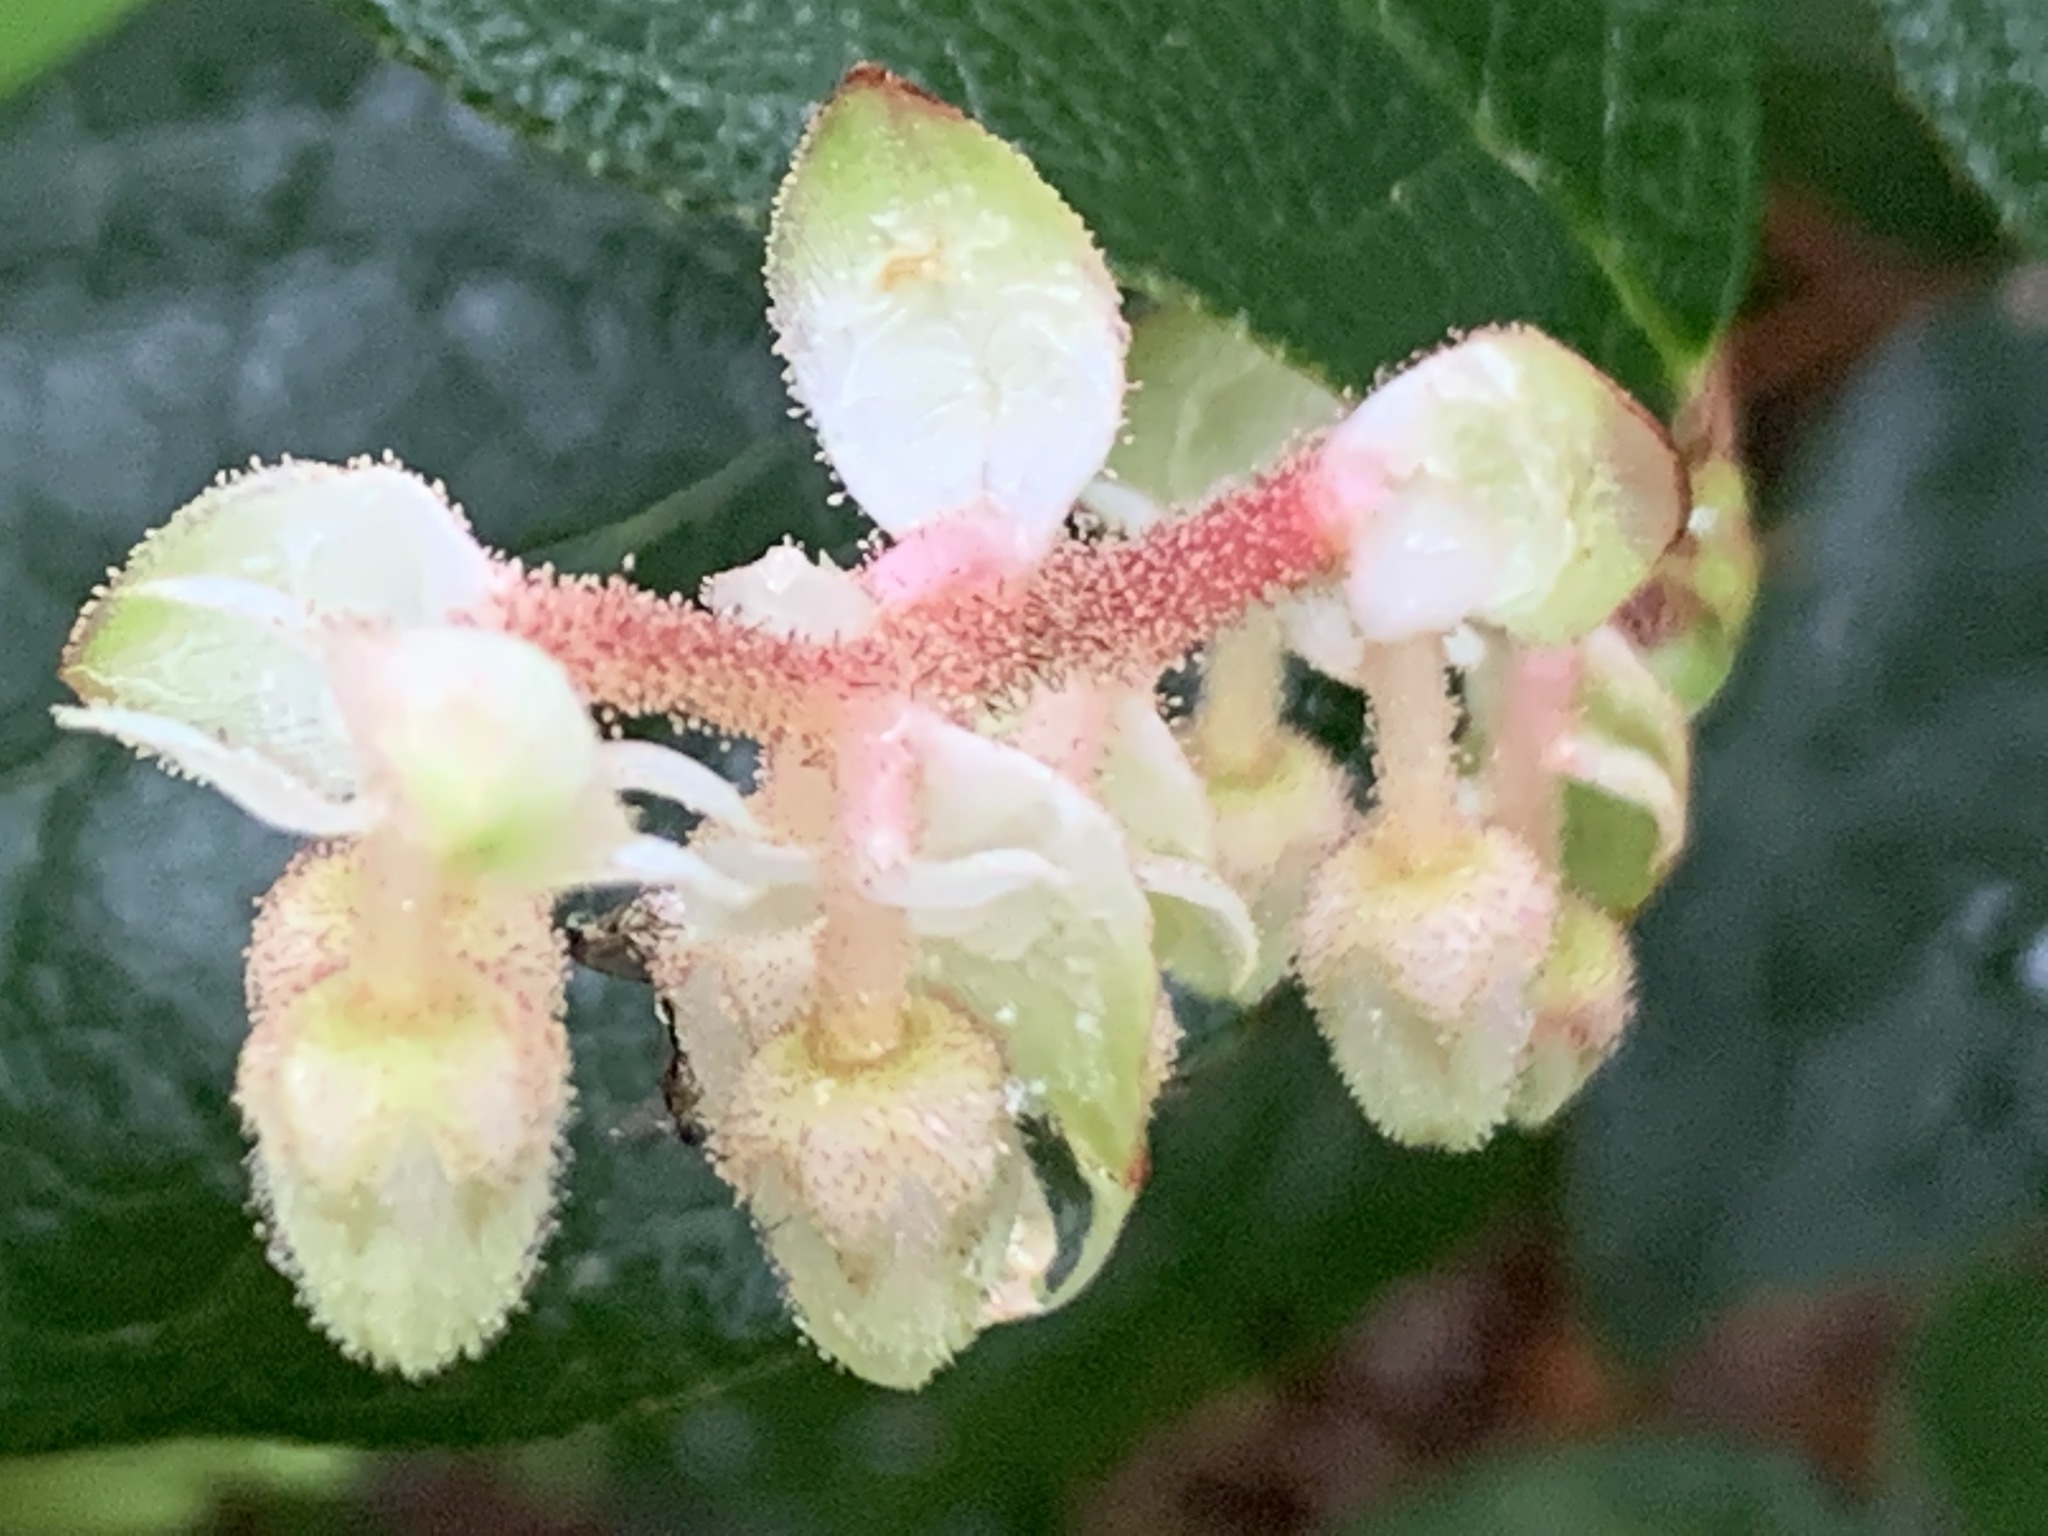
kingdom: Plantae
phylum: Tracheophyta
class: Magnoliopsida
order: Ericales
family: Ericaceae
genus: Gaultheria
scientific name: Gaultheria shallon
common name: Shallon
